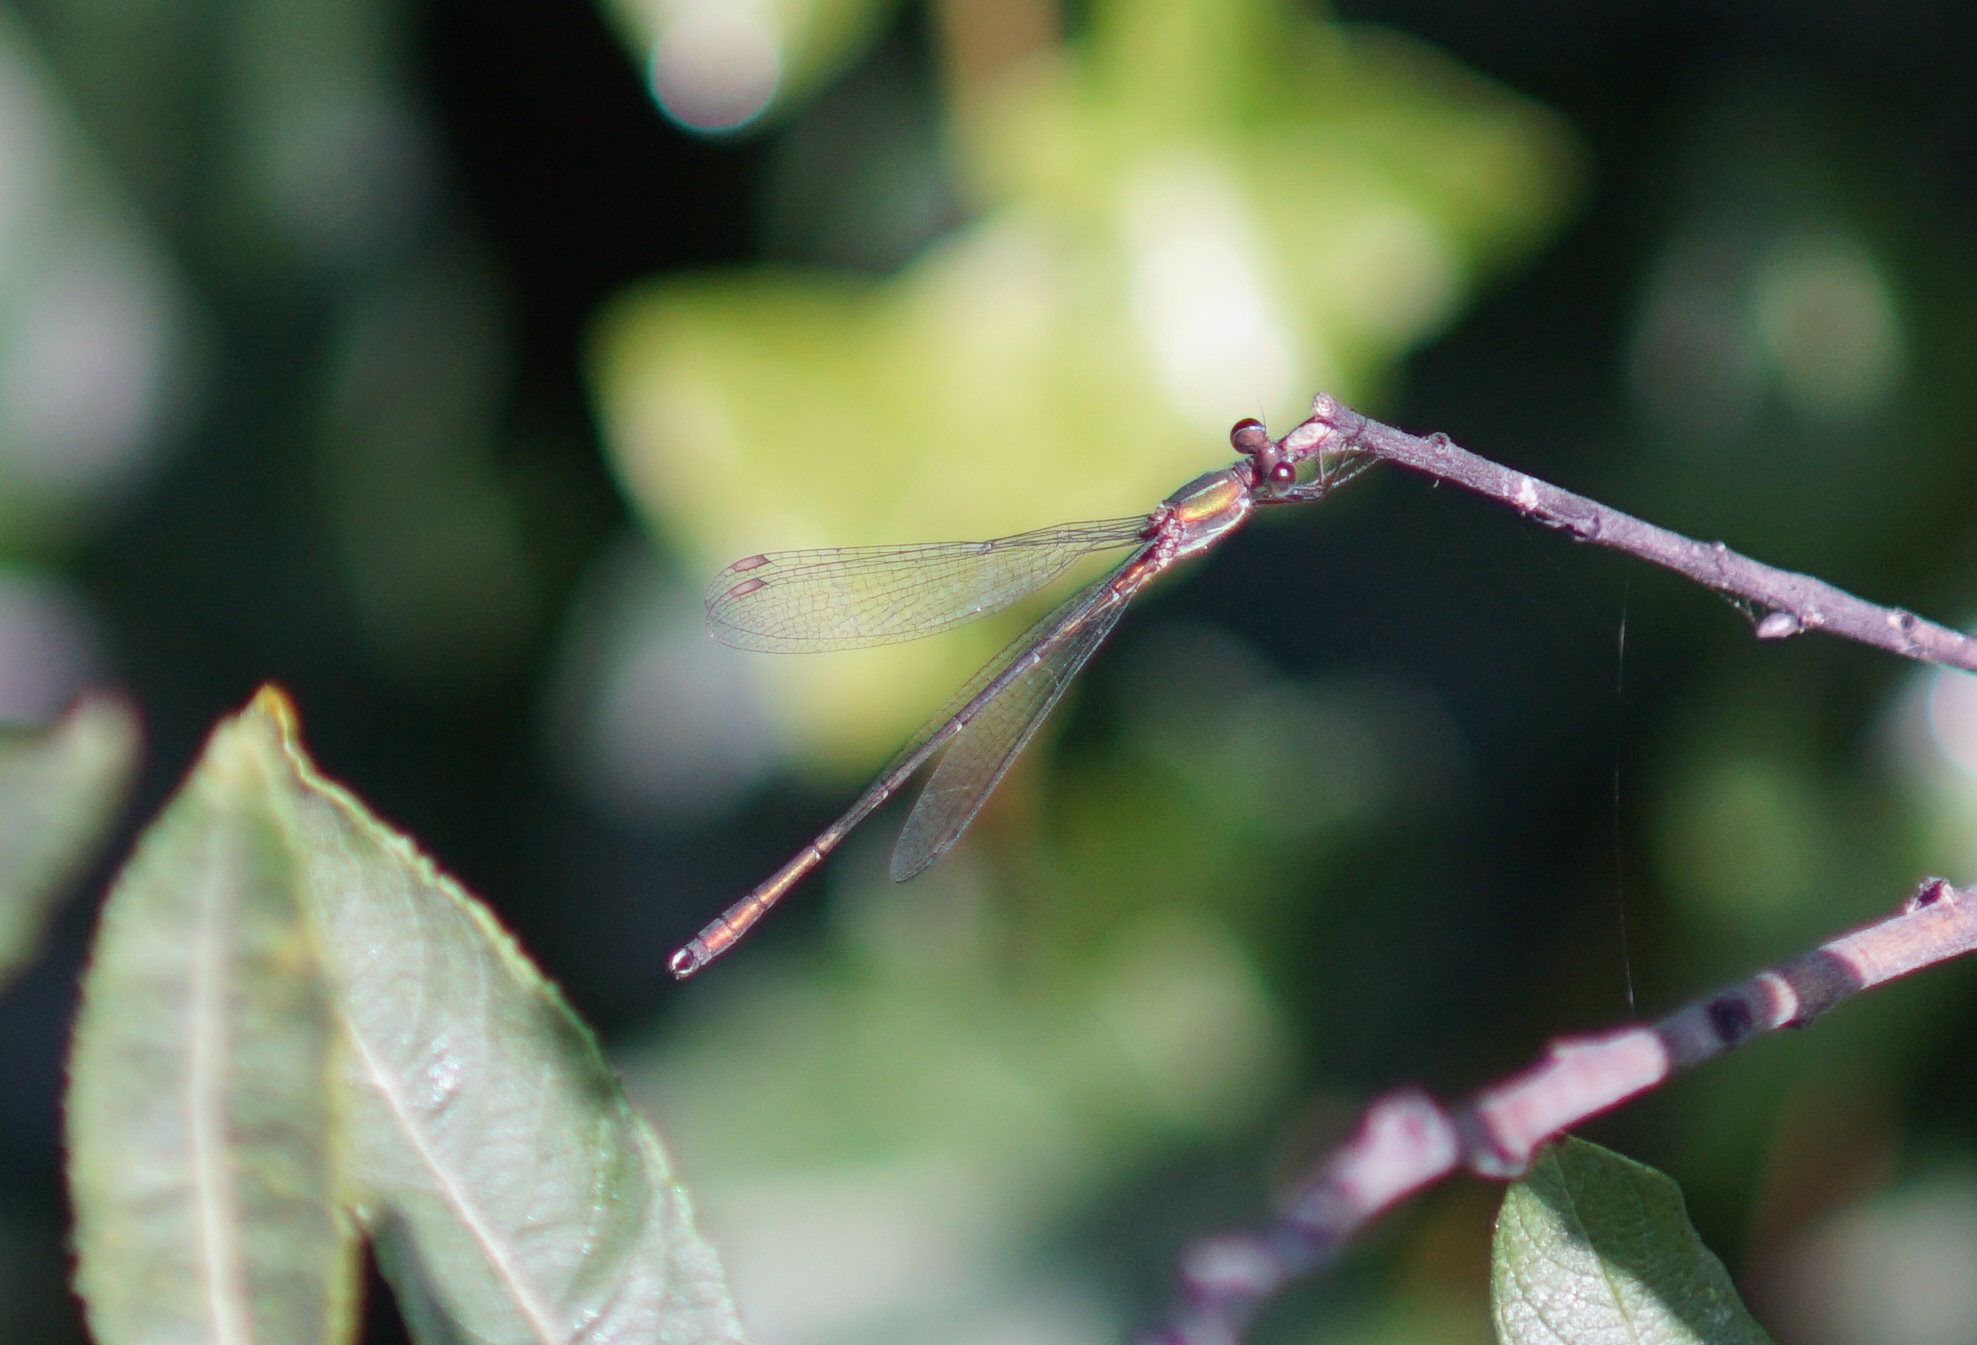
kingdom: Animalia
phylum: Arthropoda
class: Insecta
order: Odonata
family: Lestidae
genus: Chalcolestes
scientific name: Chalcolestes viridis
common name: Green emerald damselfly
